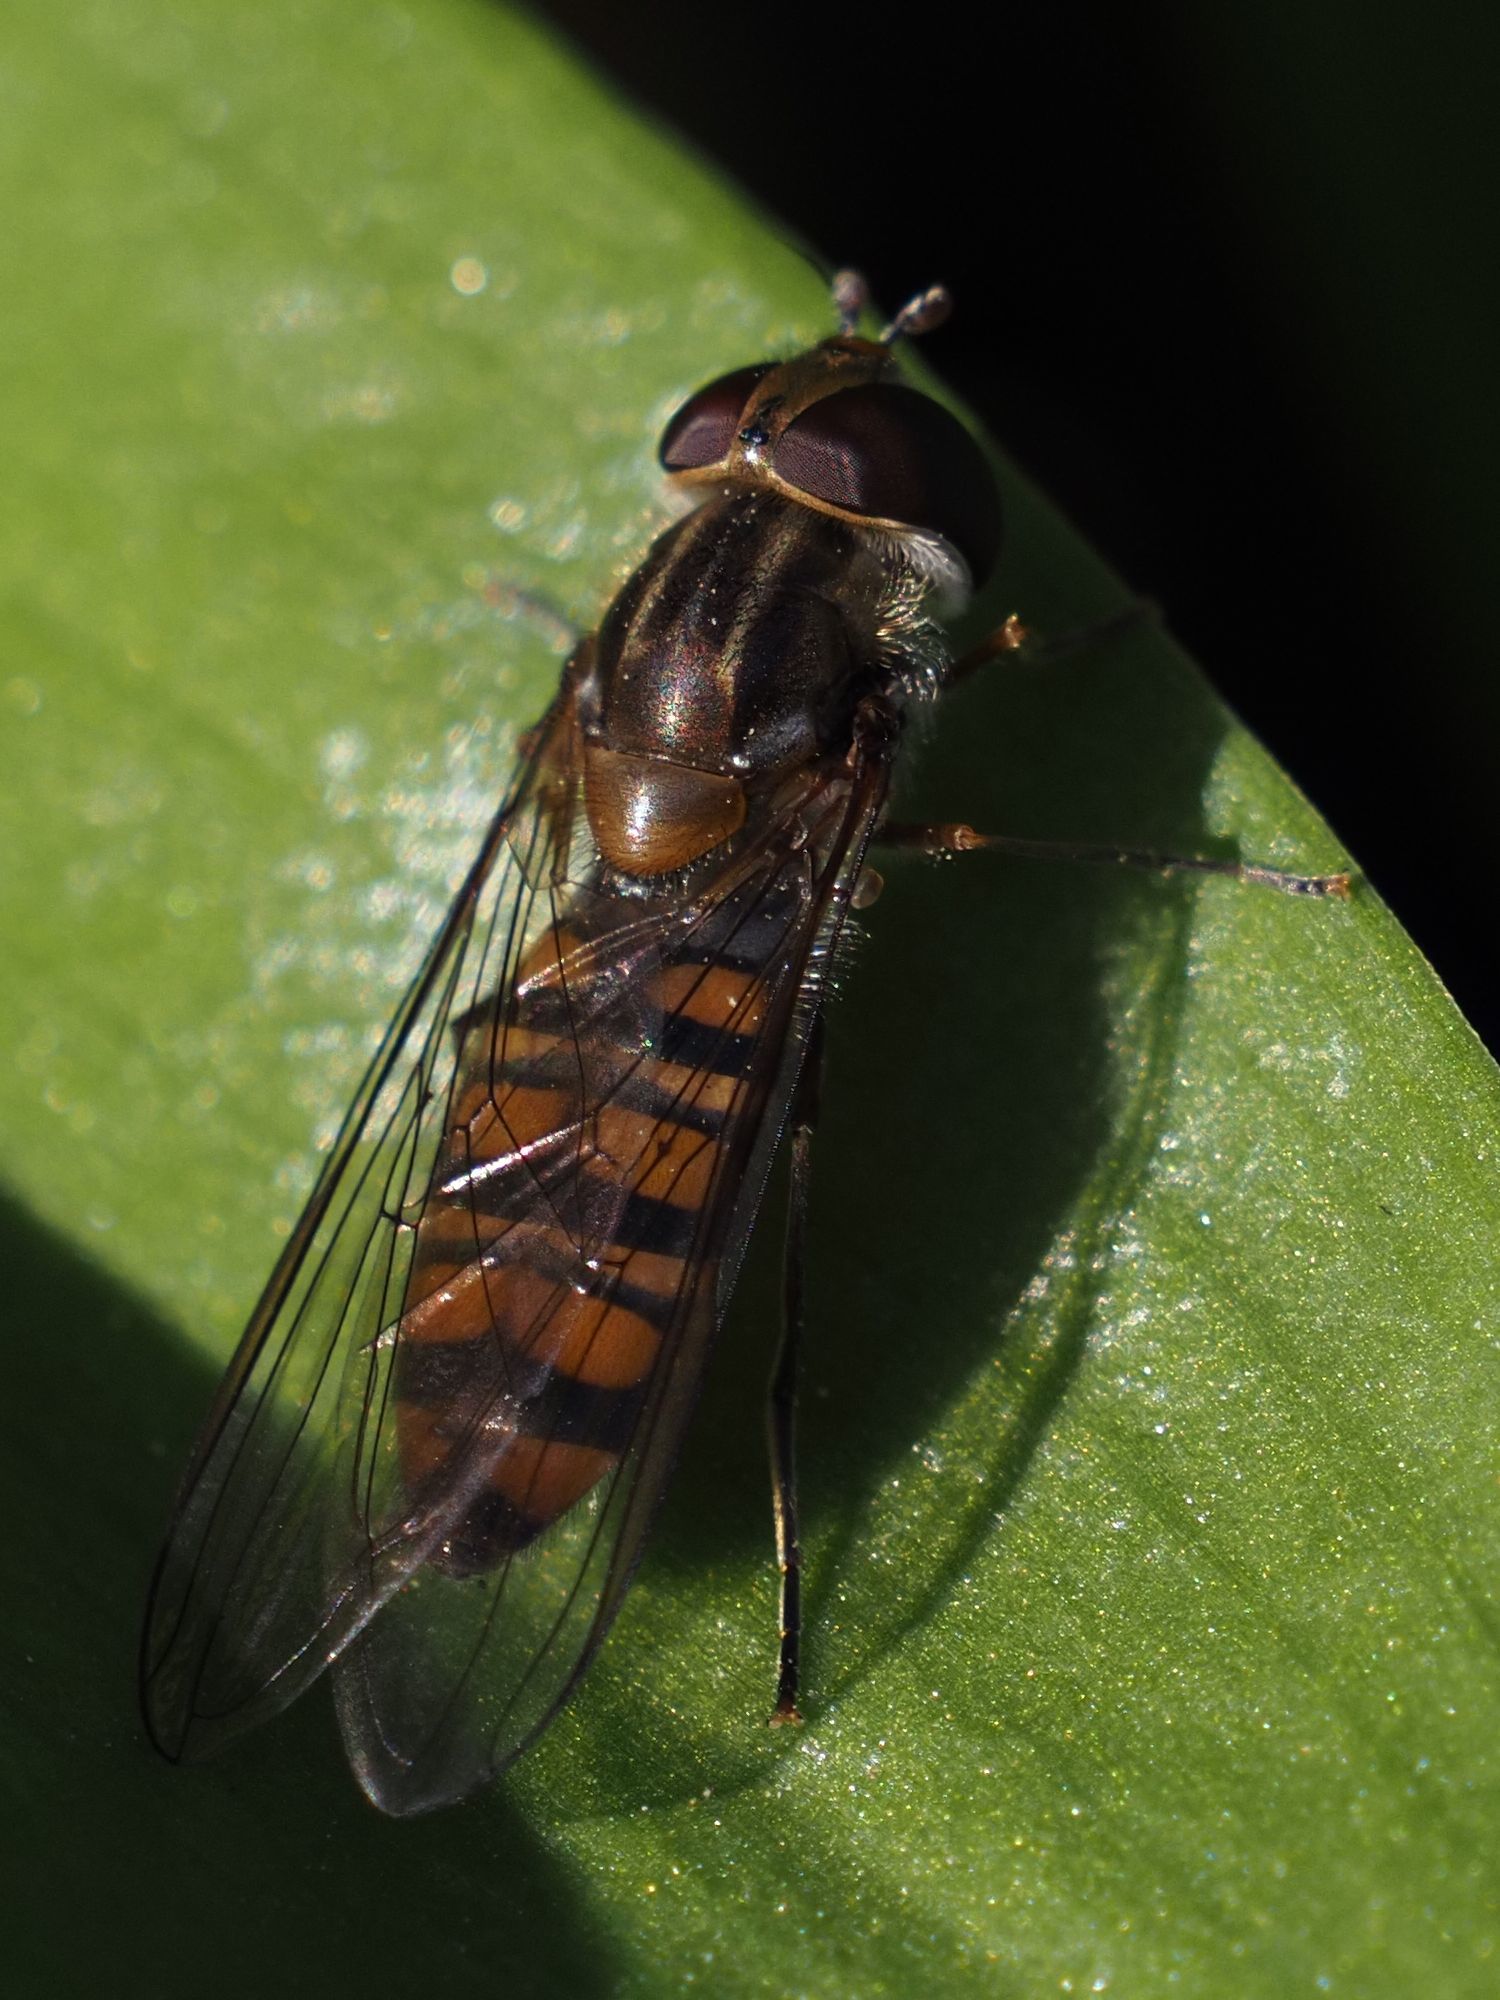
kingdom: Animalia
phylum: Arthropoda
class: Insecta
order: Diptera
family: Syrphidae
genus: Episyrphus
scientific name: Episyrphus balteatus
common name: Marmalade hoverfly
